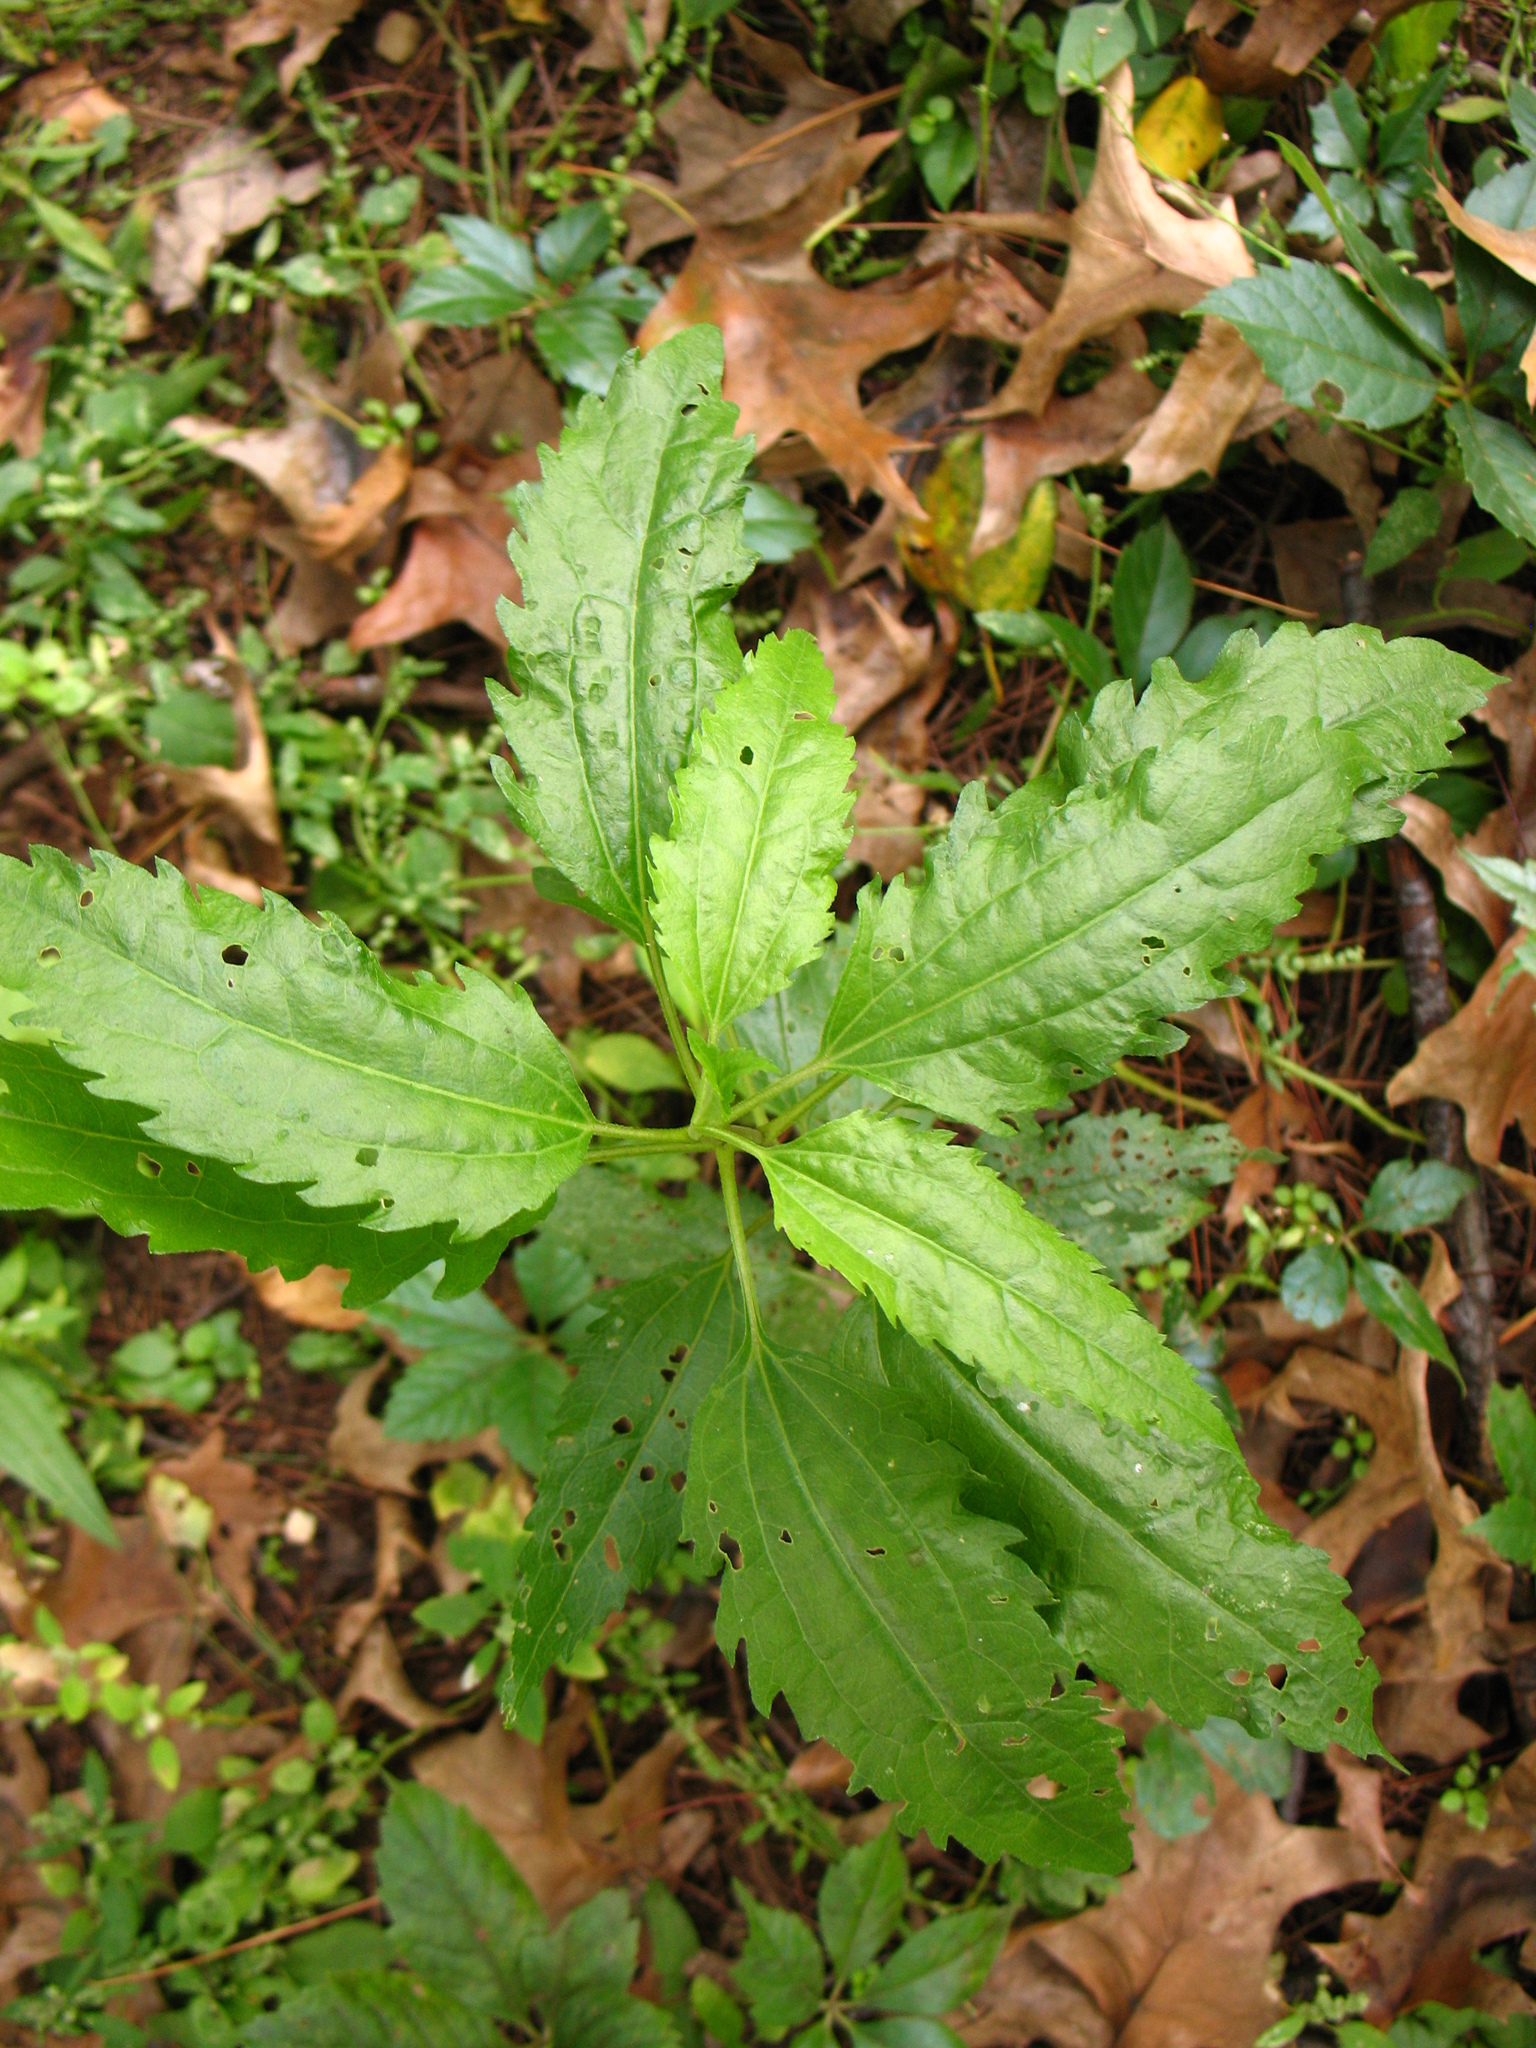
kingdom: Plantae
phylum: Tracheophyta
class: Magnoliopsida
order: Asterales
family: Asteraceae
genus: Eupatorium
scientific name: Eupatorium serotinum
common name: Late boneset
